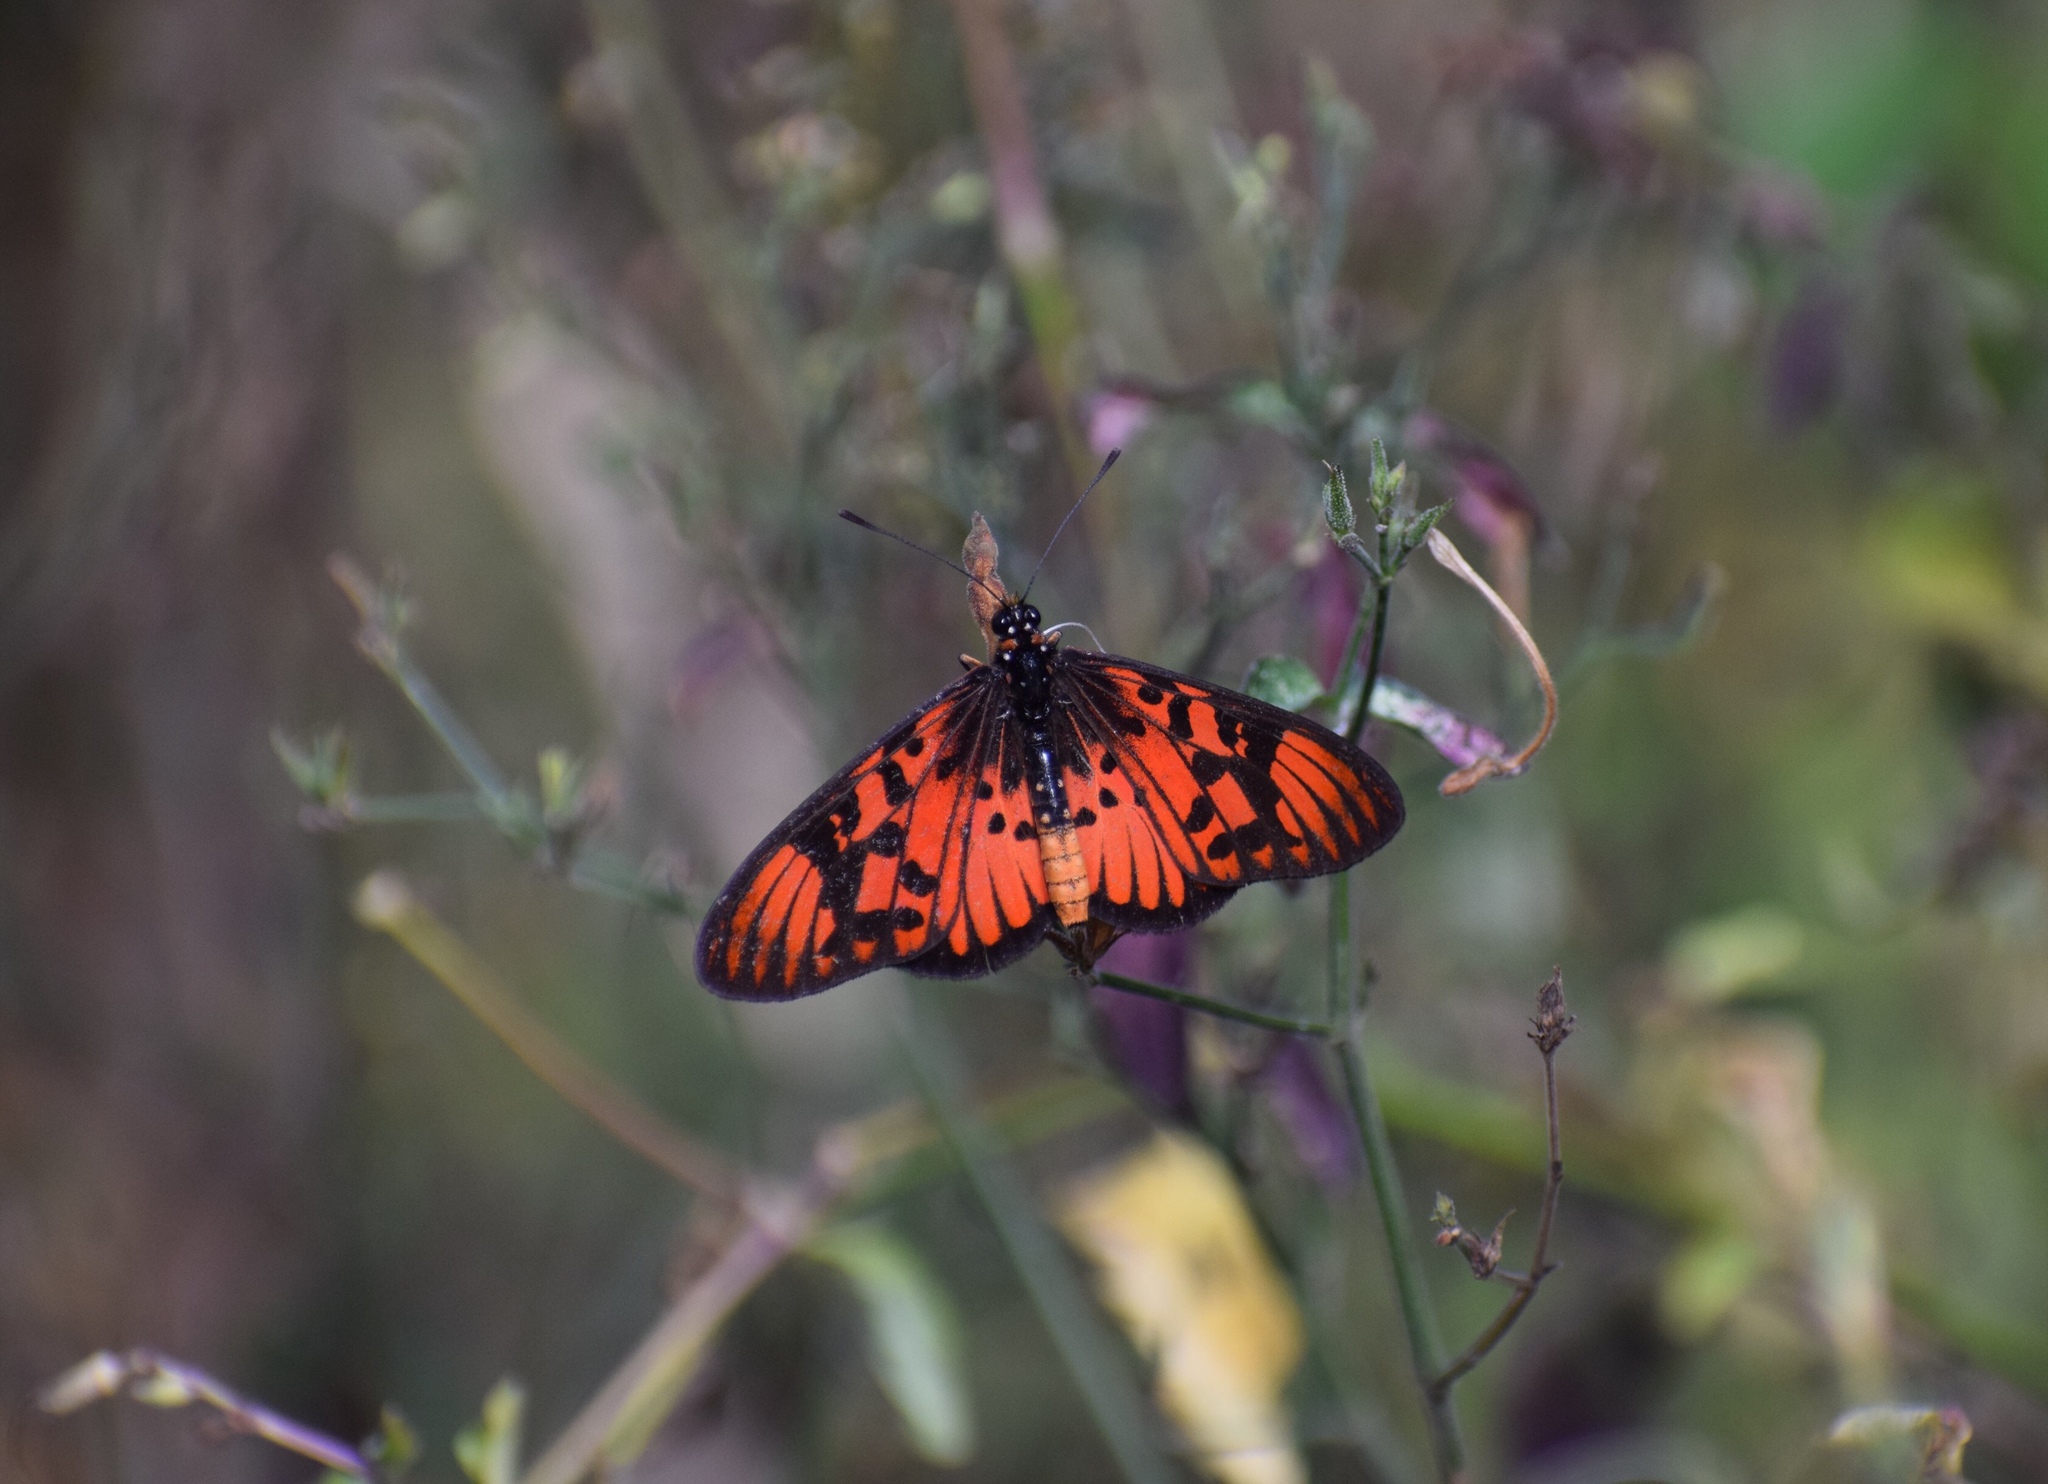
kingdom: Animalia
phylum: Arthropoda
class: Insecta
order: Lepidoptera
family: Nymphalidae
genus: Rubraea
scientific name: Rubraea
